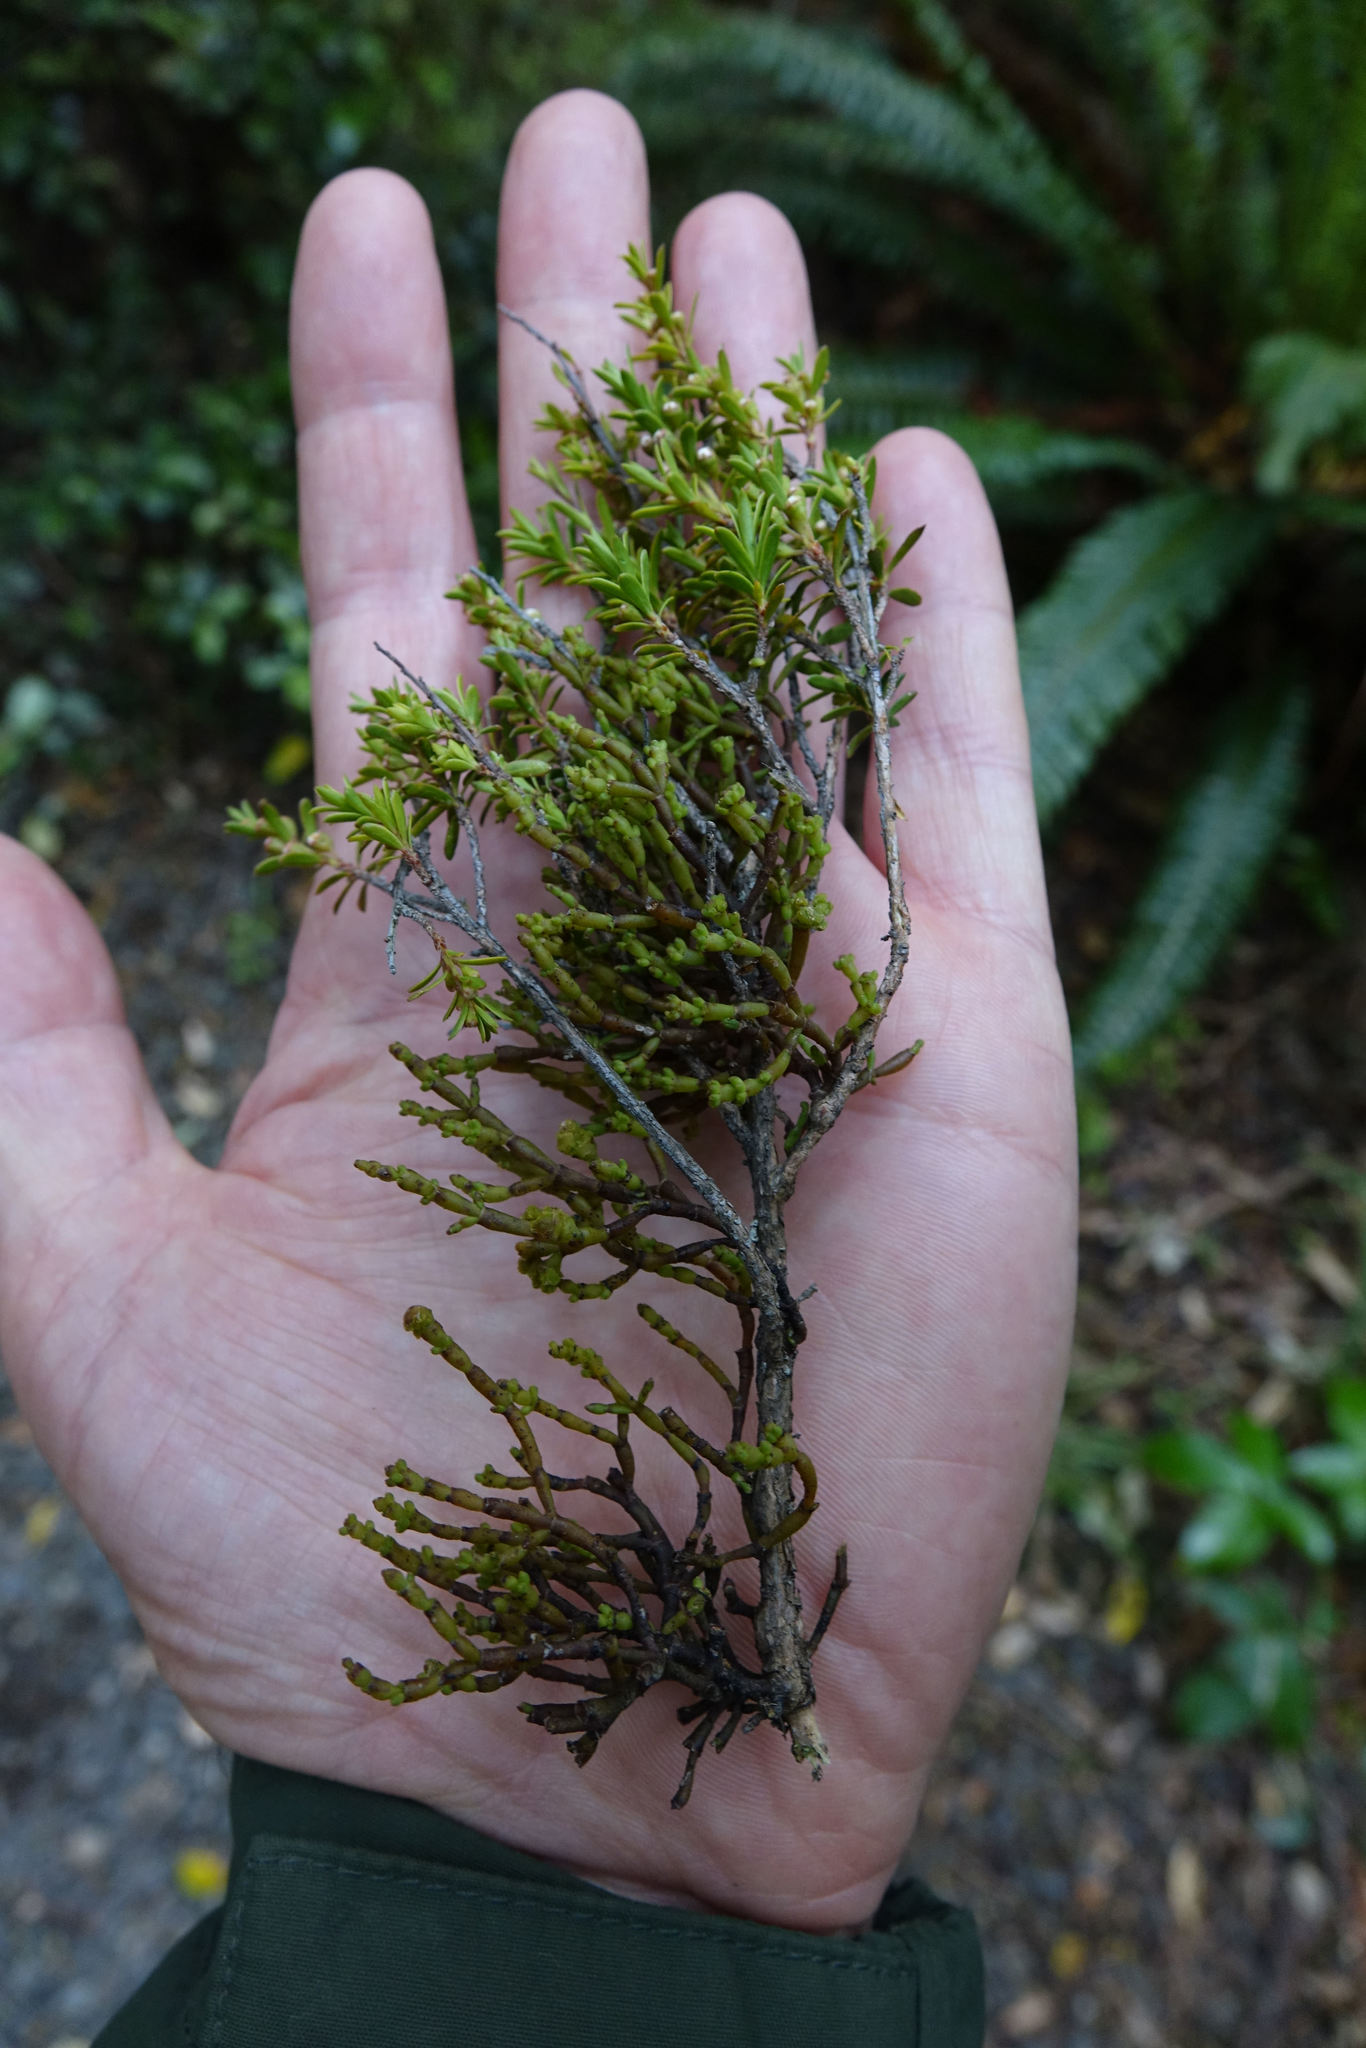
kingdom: Plantae
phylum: Tracheophyta
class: Magnoliopsida
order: Santalales
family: Viscaceae
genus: Korthalsella
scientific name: Korthalsella salicornioides
